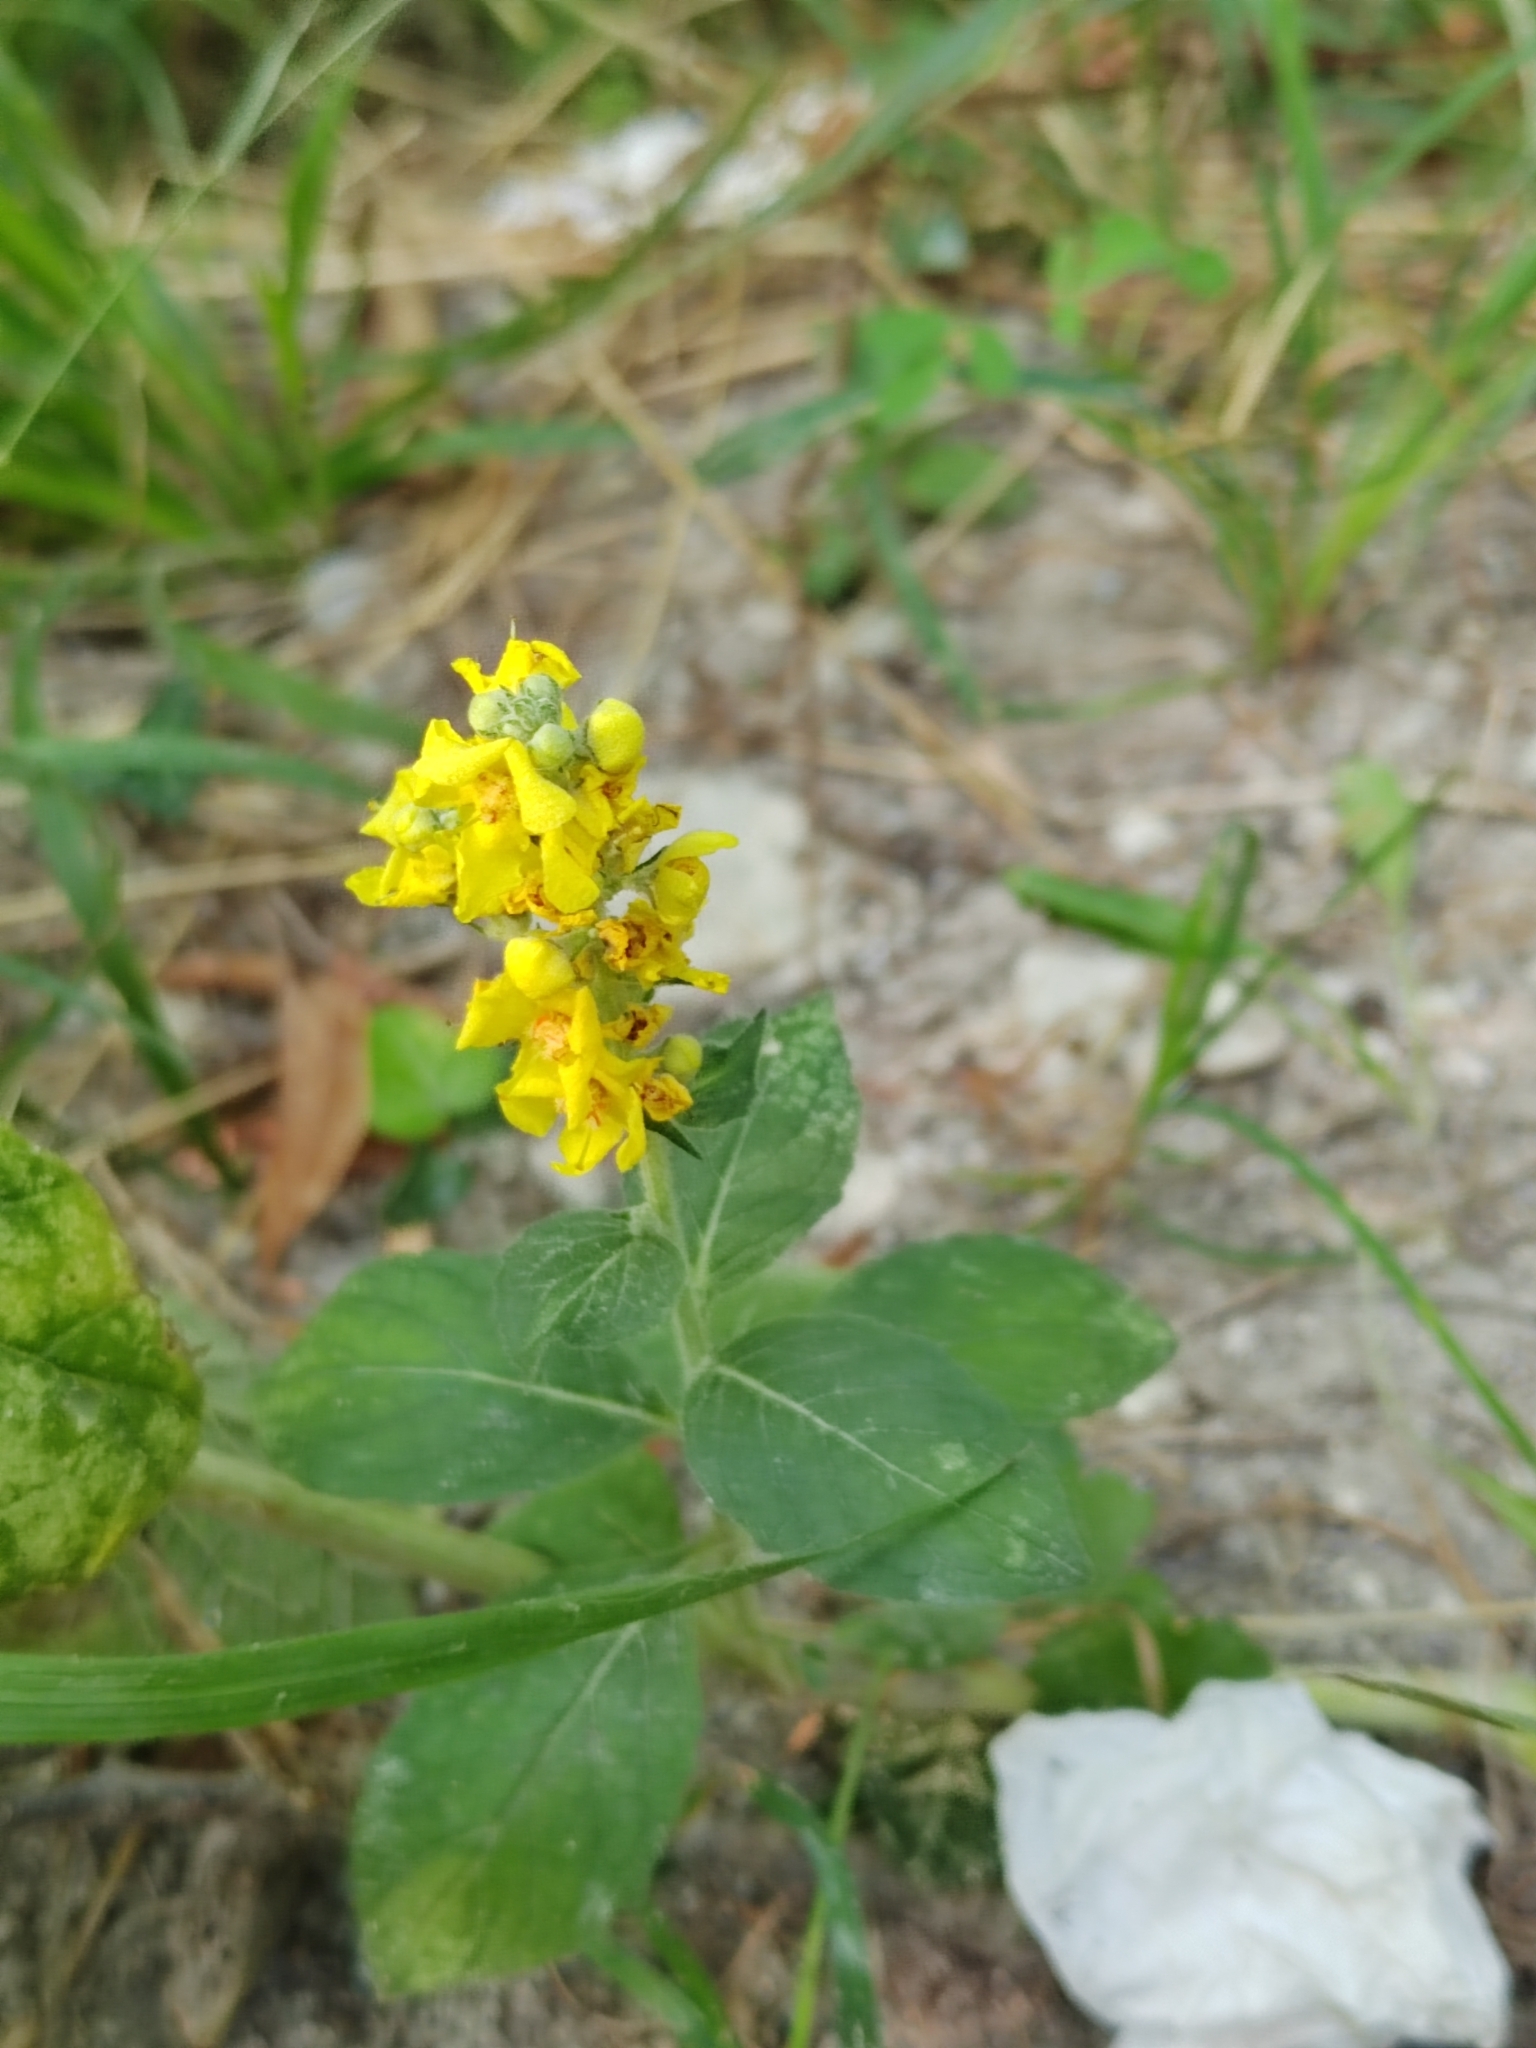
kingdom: Plantae
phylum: Tracheophyta
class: Magnoliopsida
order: Lamiales
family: Scrophulariaceae
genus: Verbascum
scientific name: Verbascum lychnitis
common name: White mullein
